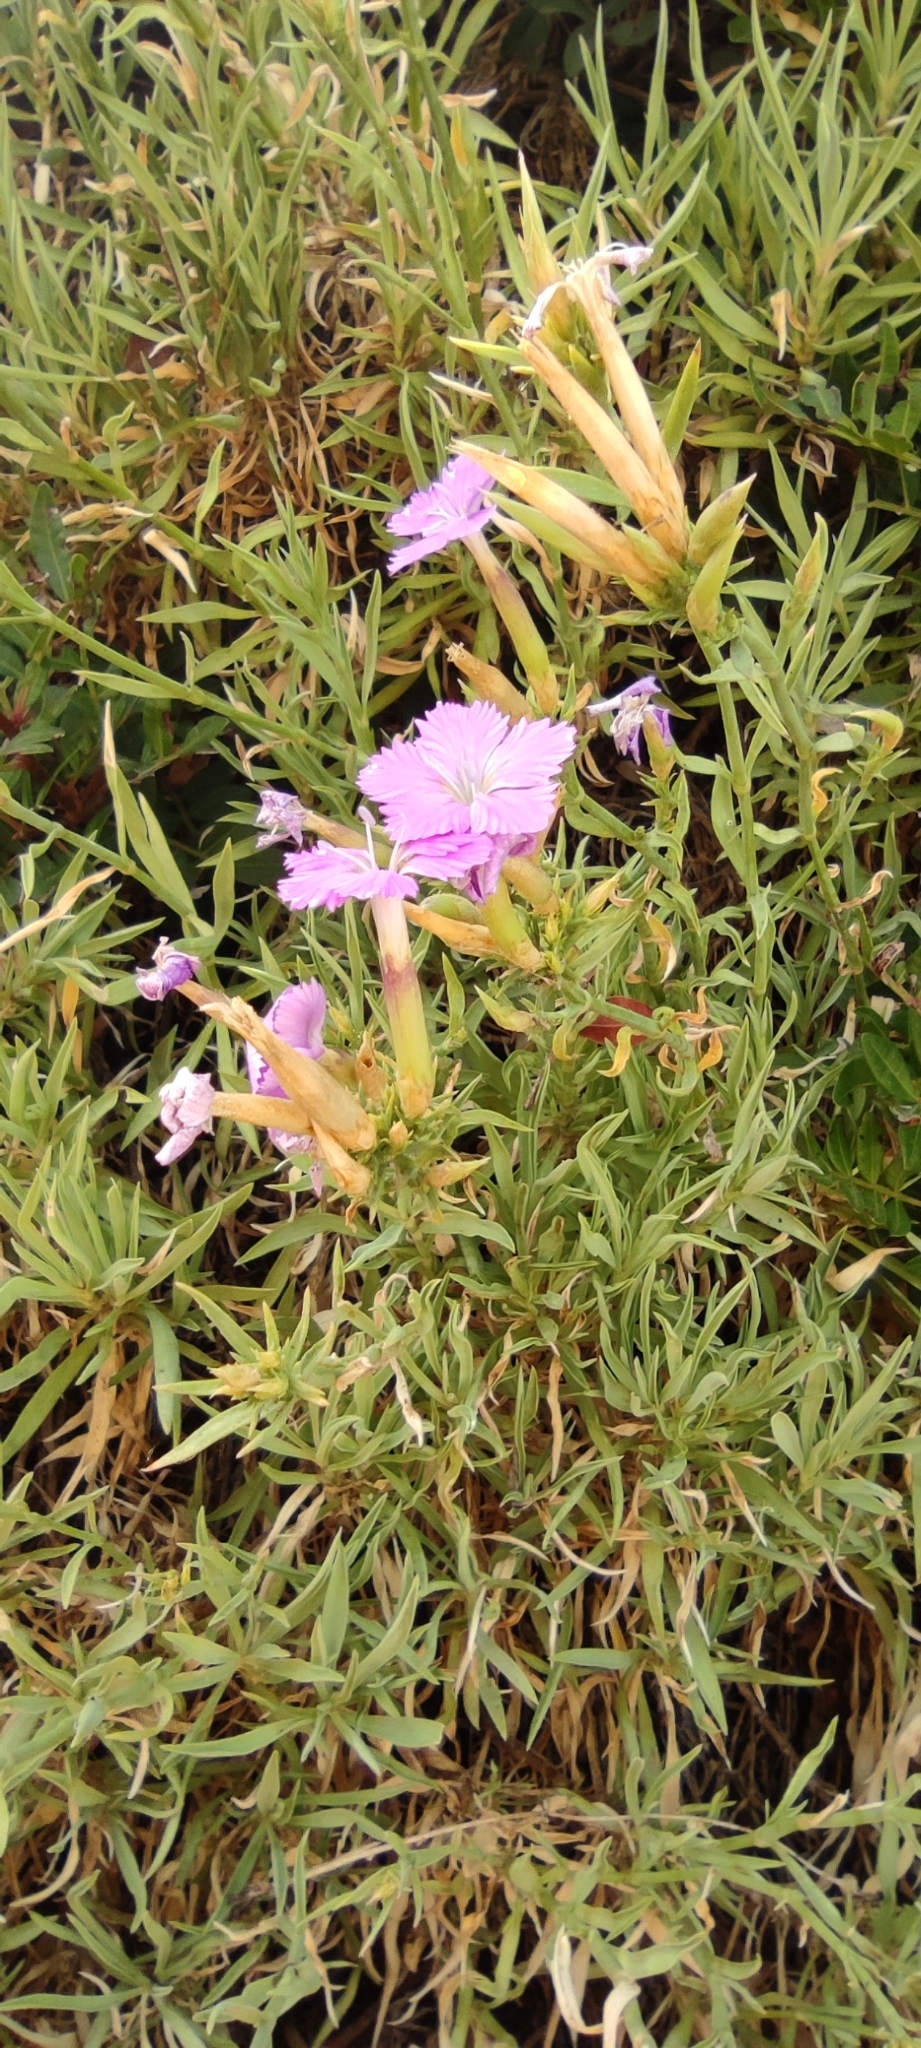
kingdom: Plantae
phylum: Tracheophyta
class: Magnoliopsida
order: Caryophyllales
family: Caryophyllaceae
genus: Dianthus
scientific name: Dianthus rupicola
